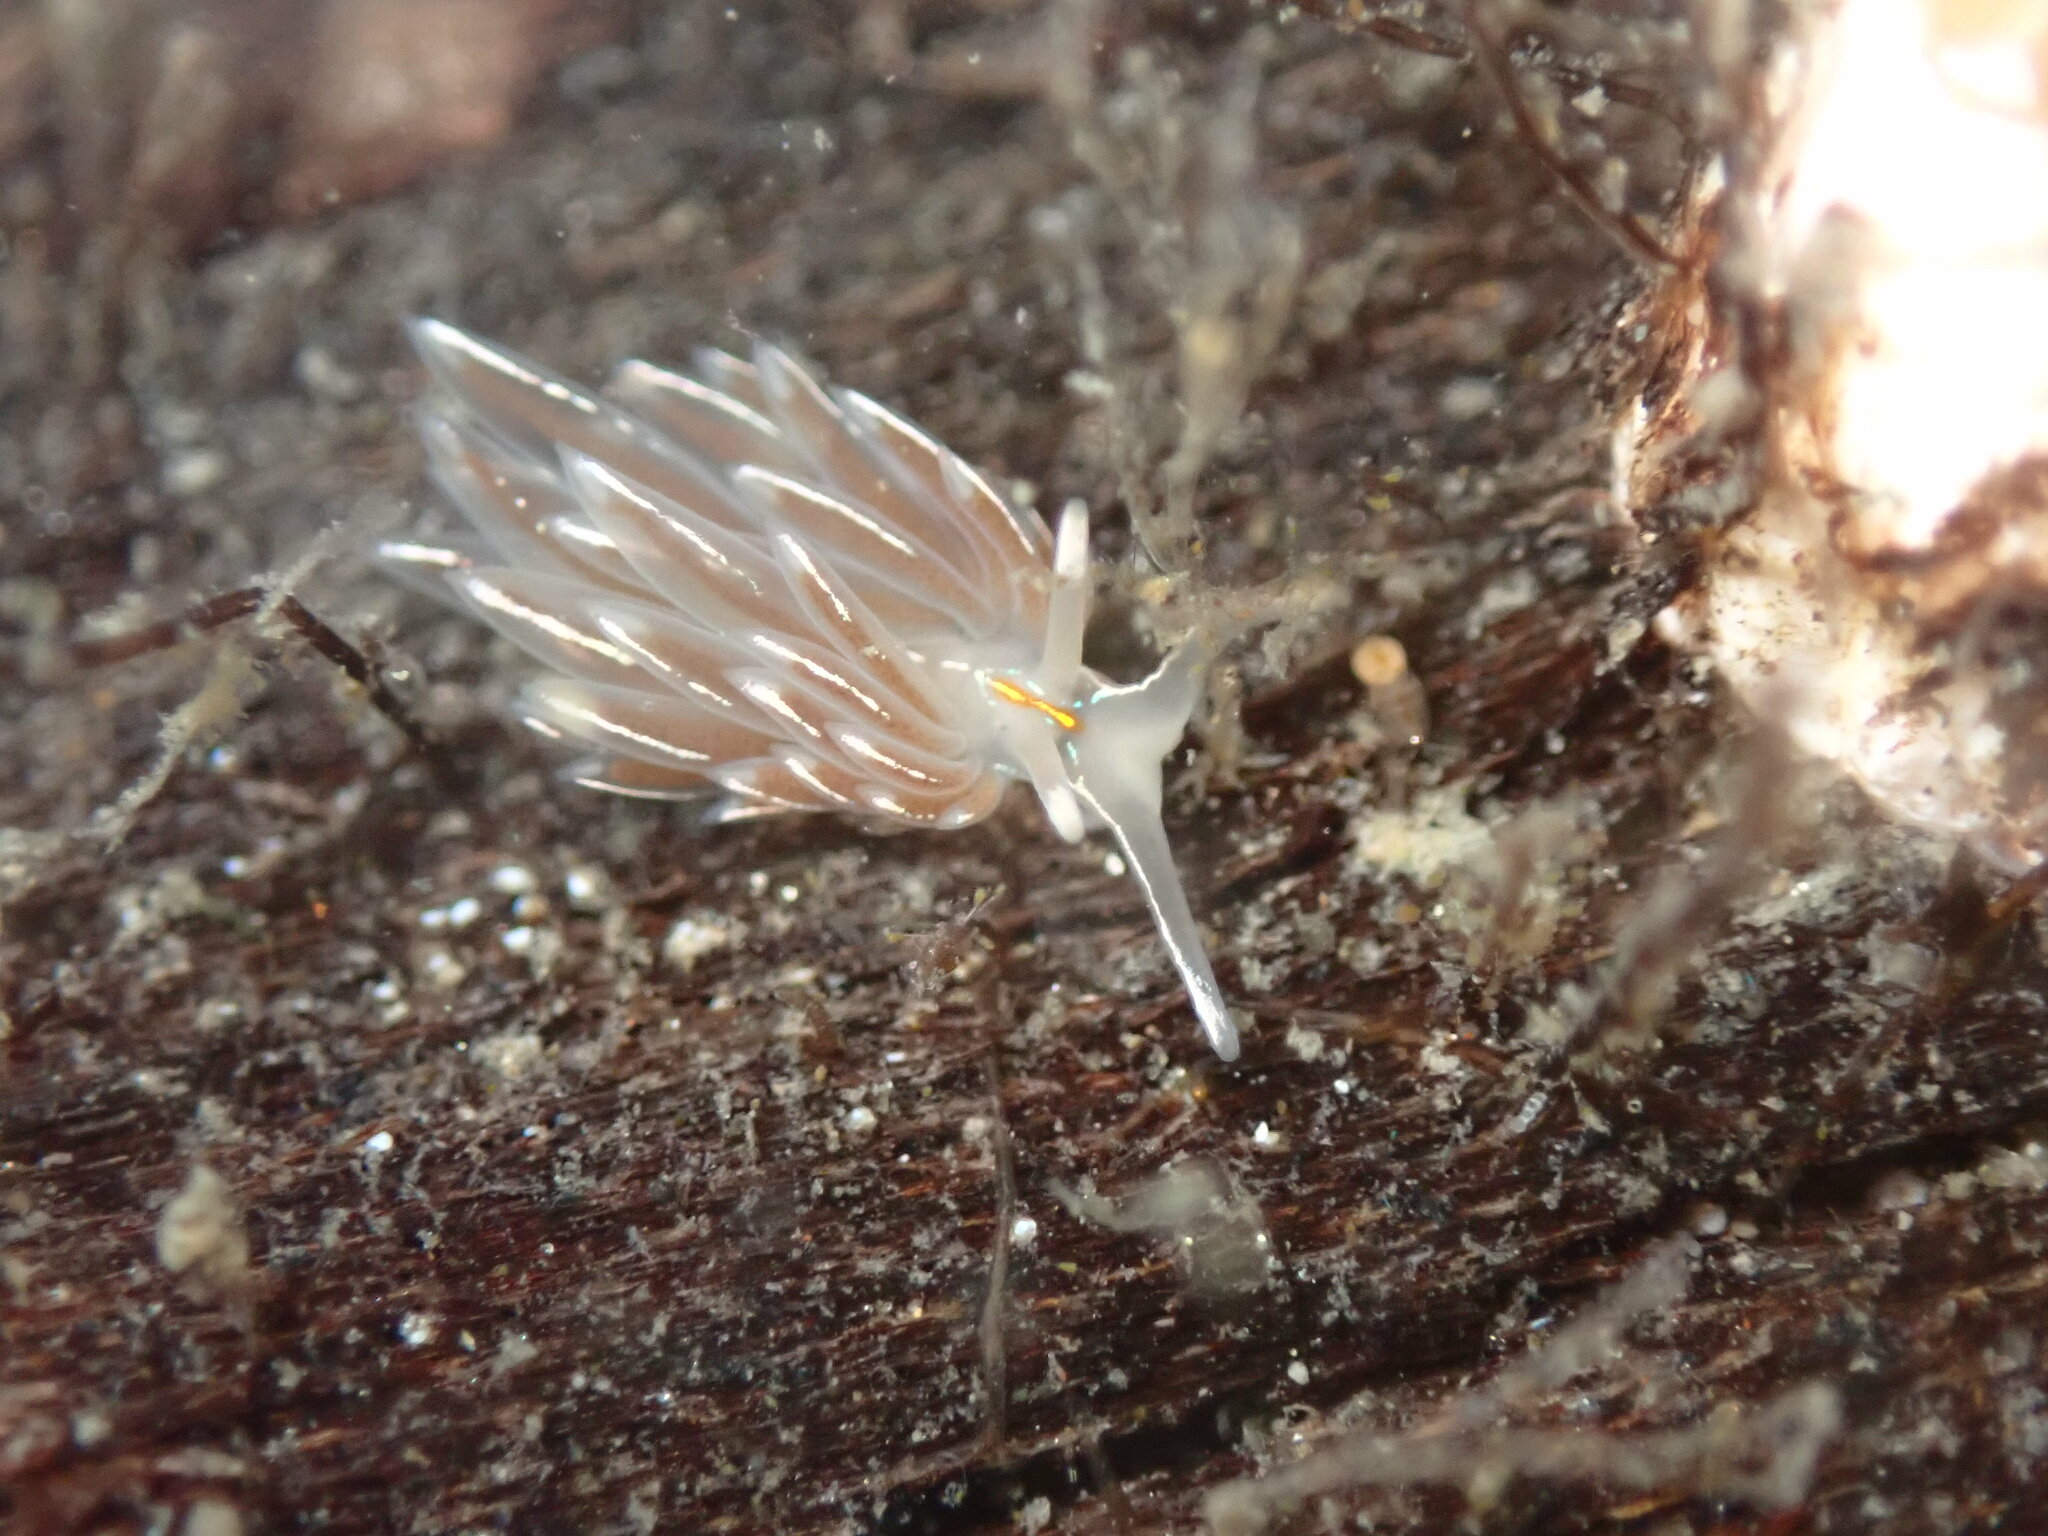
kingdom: Animalia
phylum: Mollusca
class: Gastropoda
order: Nudibranchia
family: Myrrhinidae
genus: Hermissenda
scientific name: Hermissenda crassicornis
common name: Hermissenda
